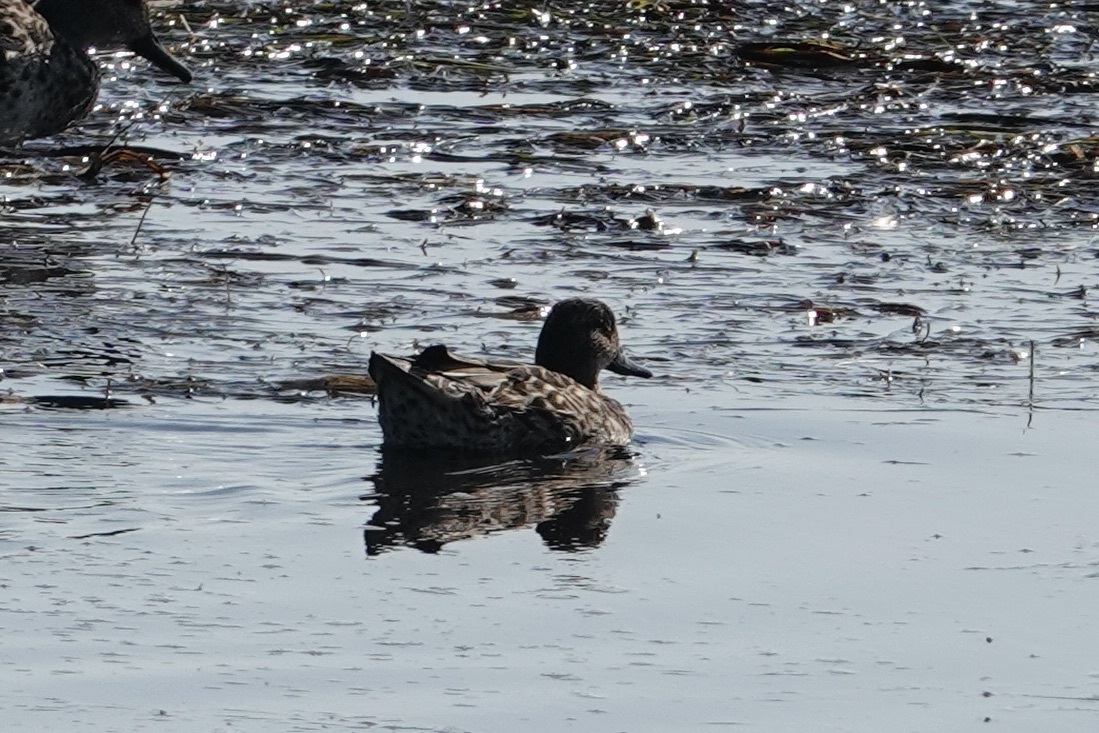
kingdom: Animalia
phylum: Chordata
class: Aves
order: Anseriformes
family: Anatidae
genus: Anas
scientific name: Anas crecca
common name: Eurasian teal
